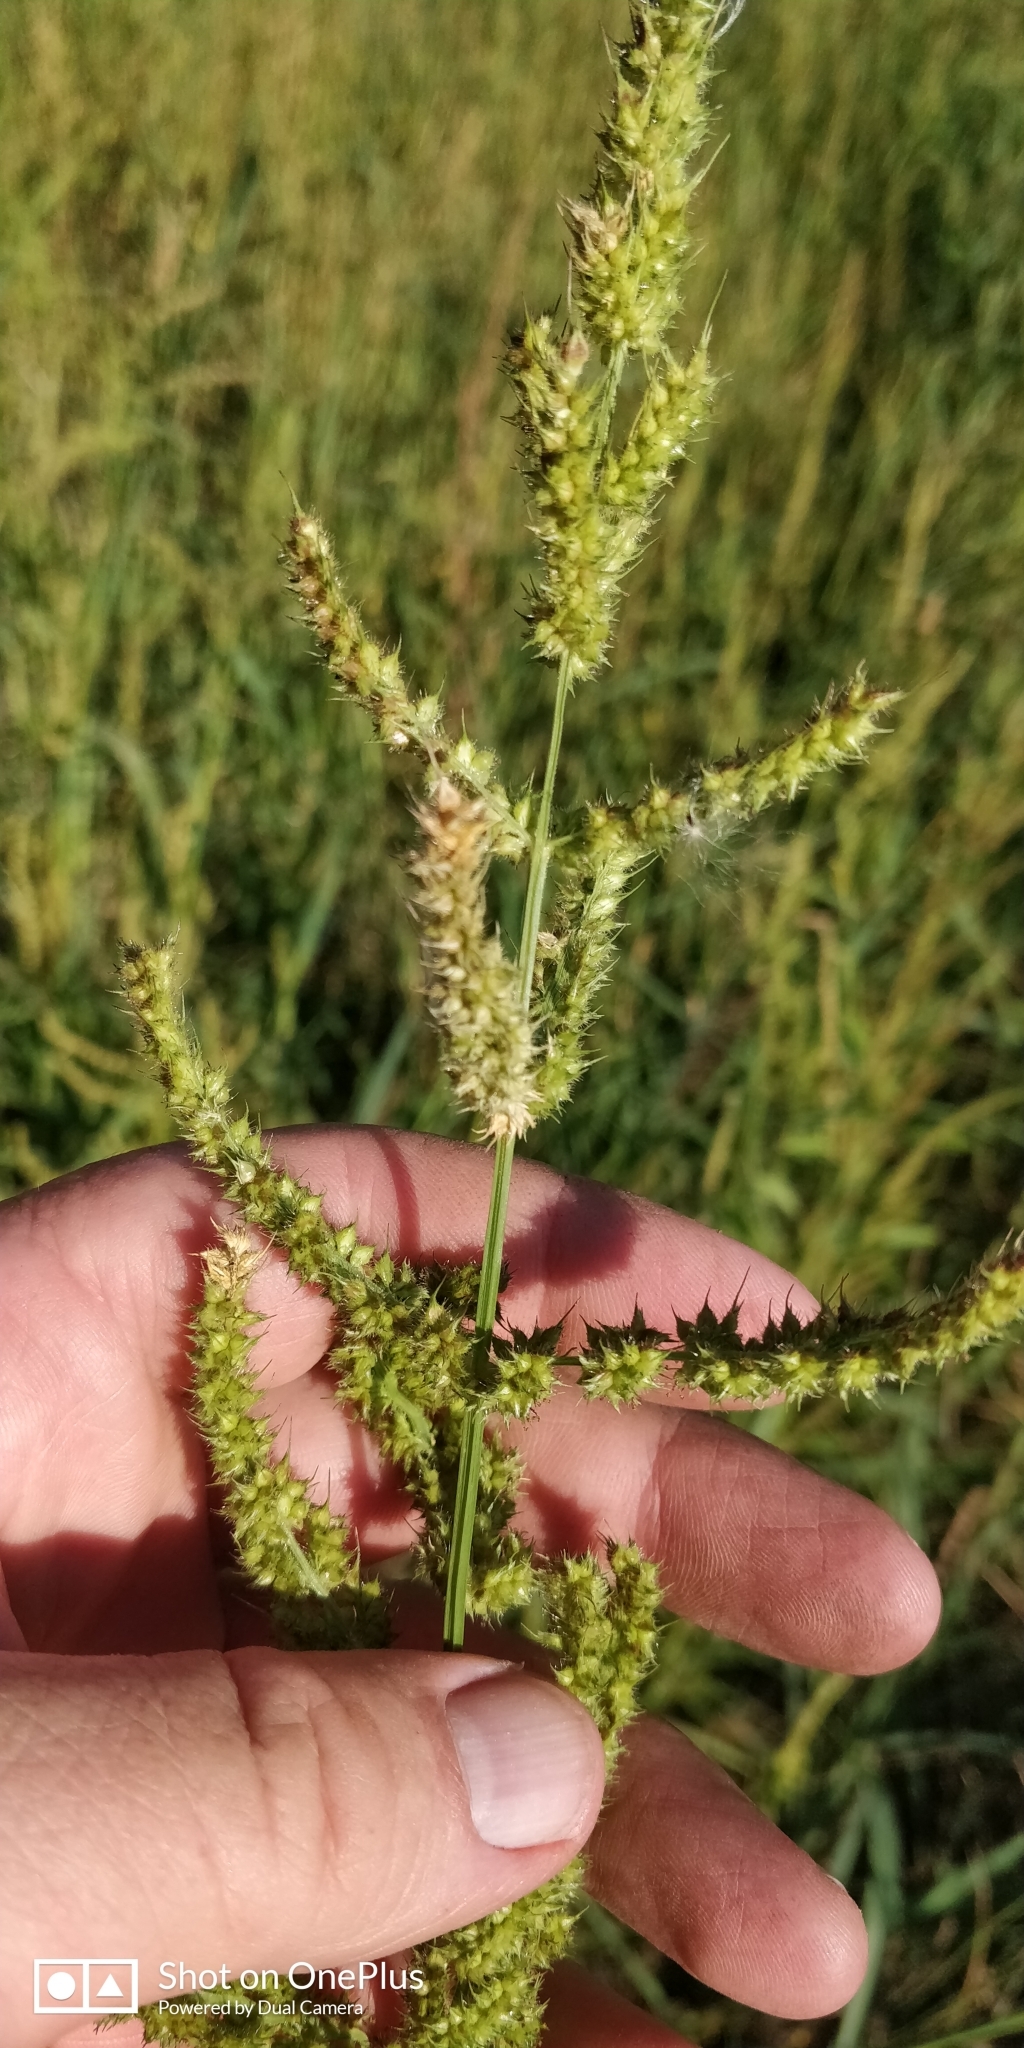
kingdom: Plantae
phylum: Tracheophyta
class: Liliopsida
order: Poales
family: Poaceae
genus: Echinochloa
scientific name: Echinochloa crus-galli
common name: Cockspur
